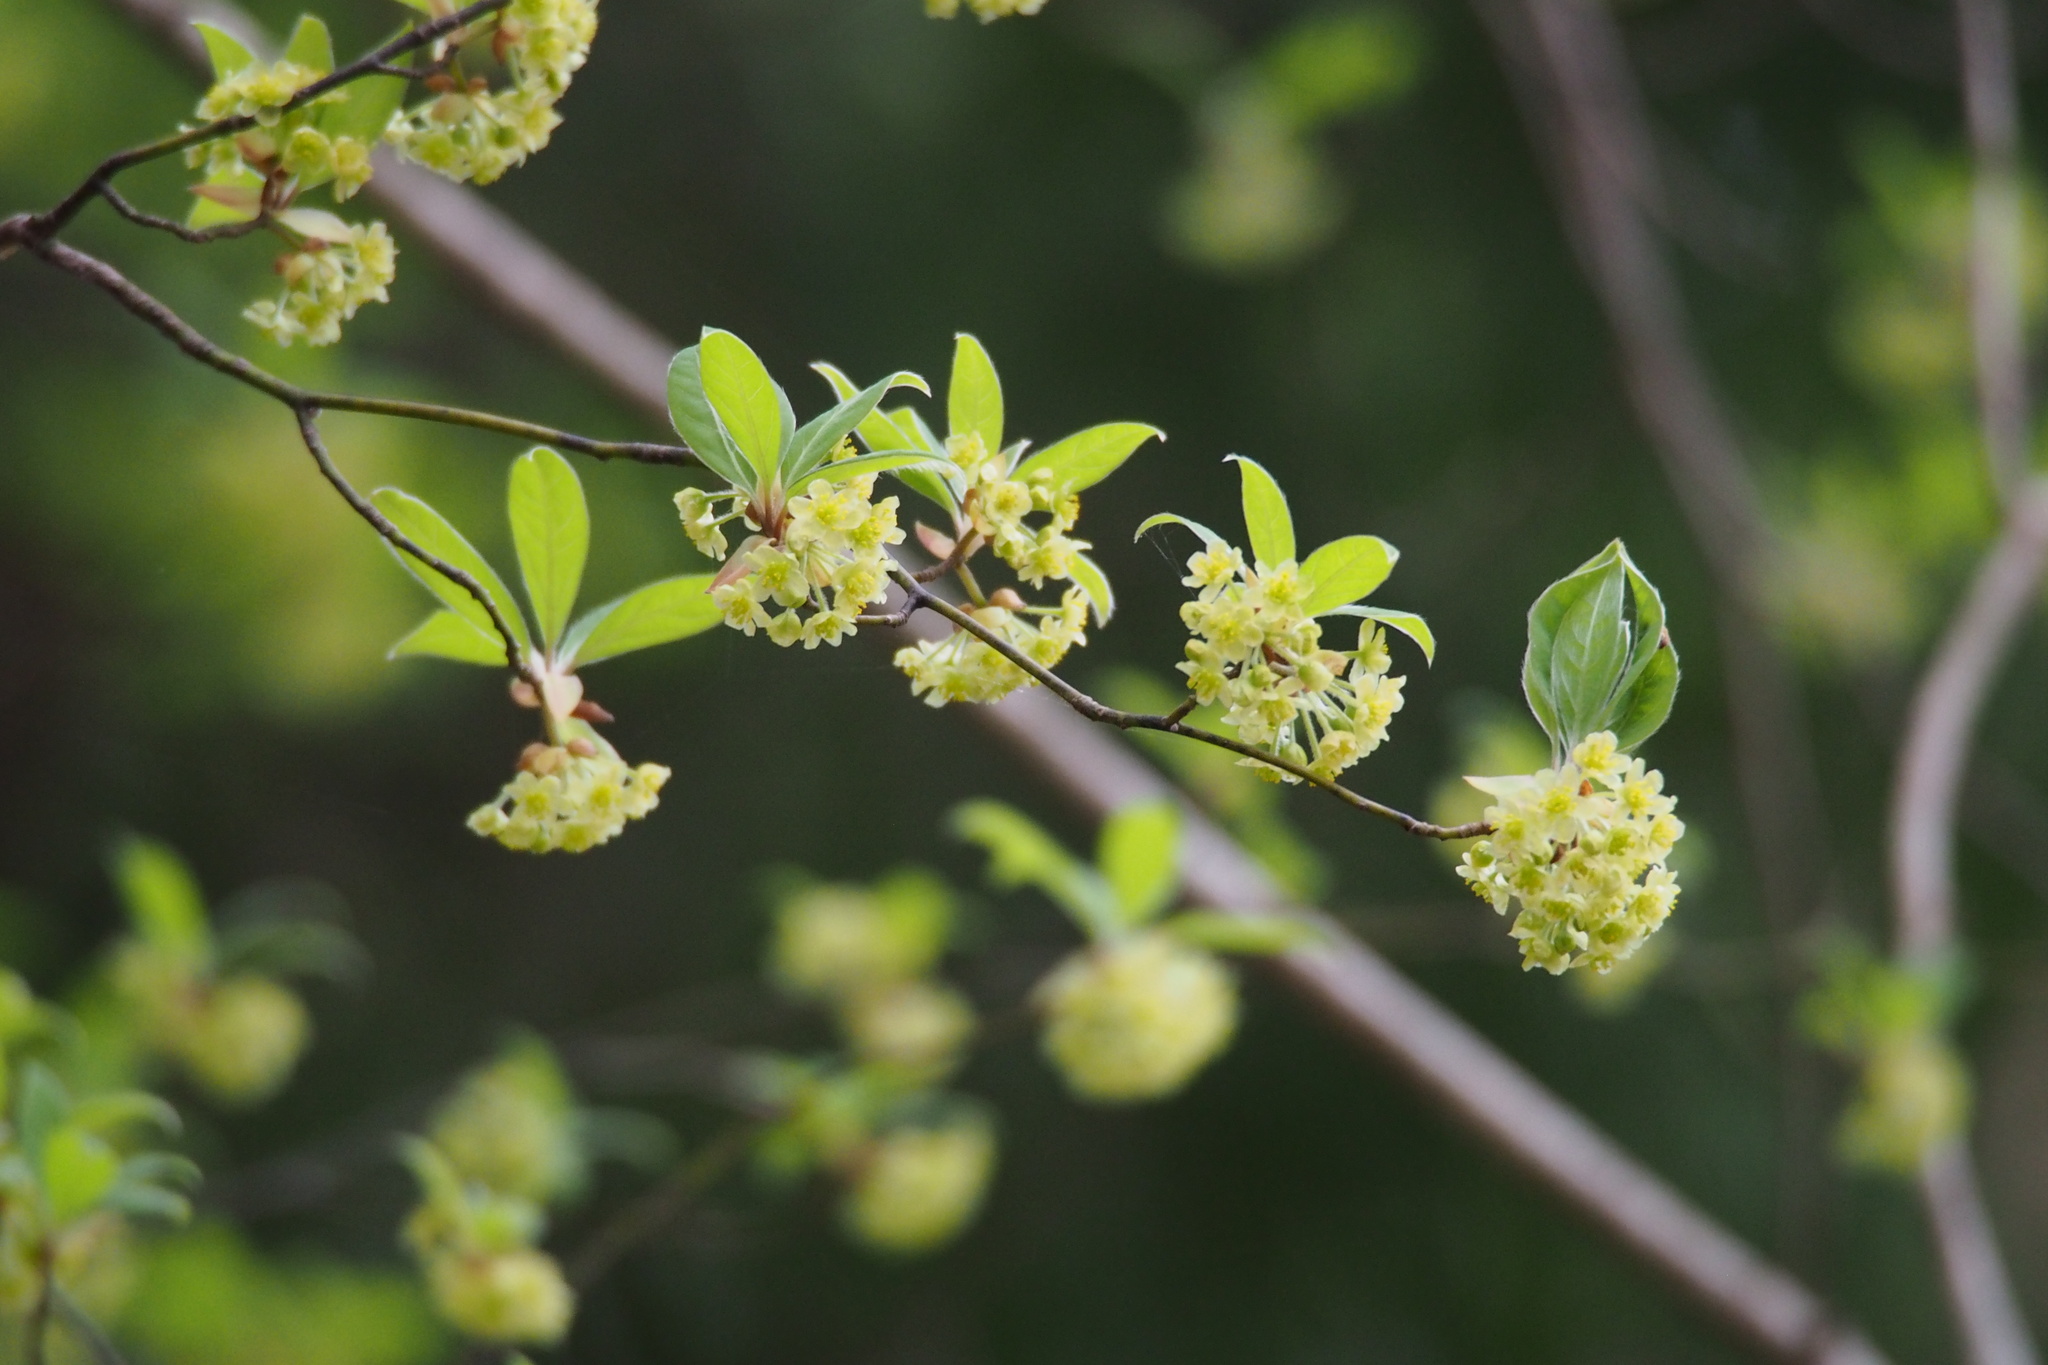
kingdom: Plantae
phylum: Tracheophyta
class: Magnoliopsida
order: Laurales
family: Lauraceae
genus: Lindera
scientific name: Lindera umbellata
